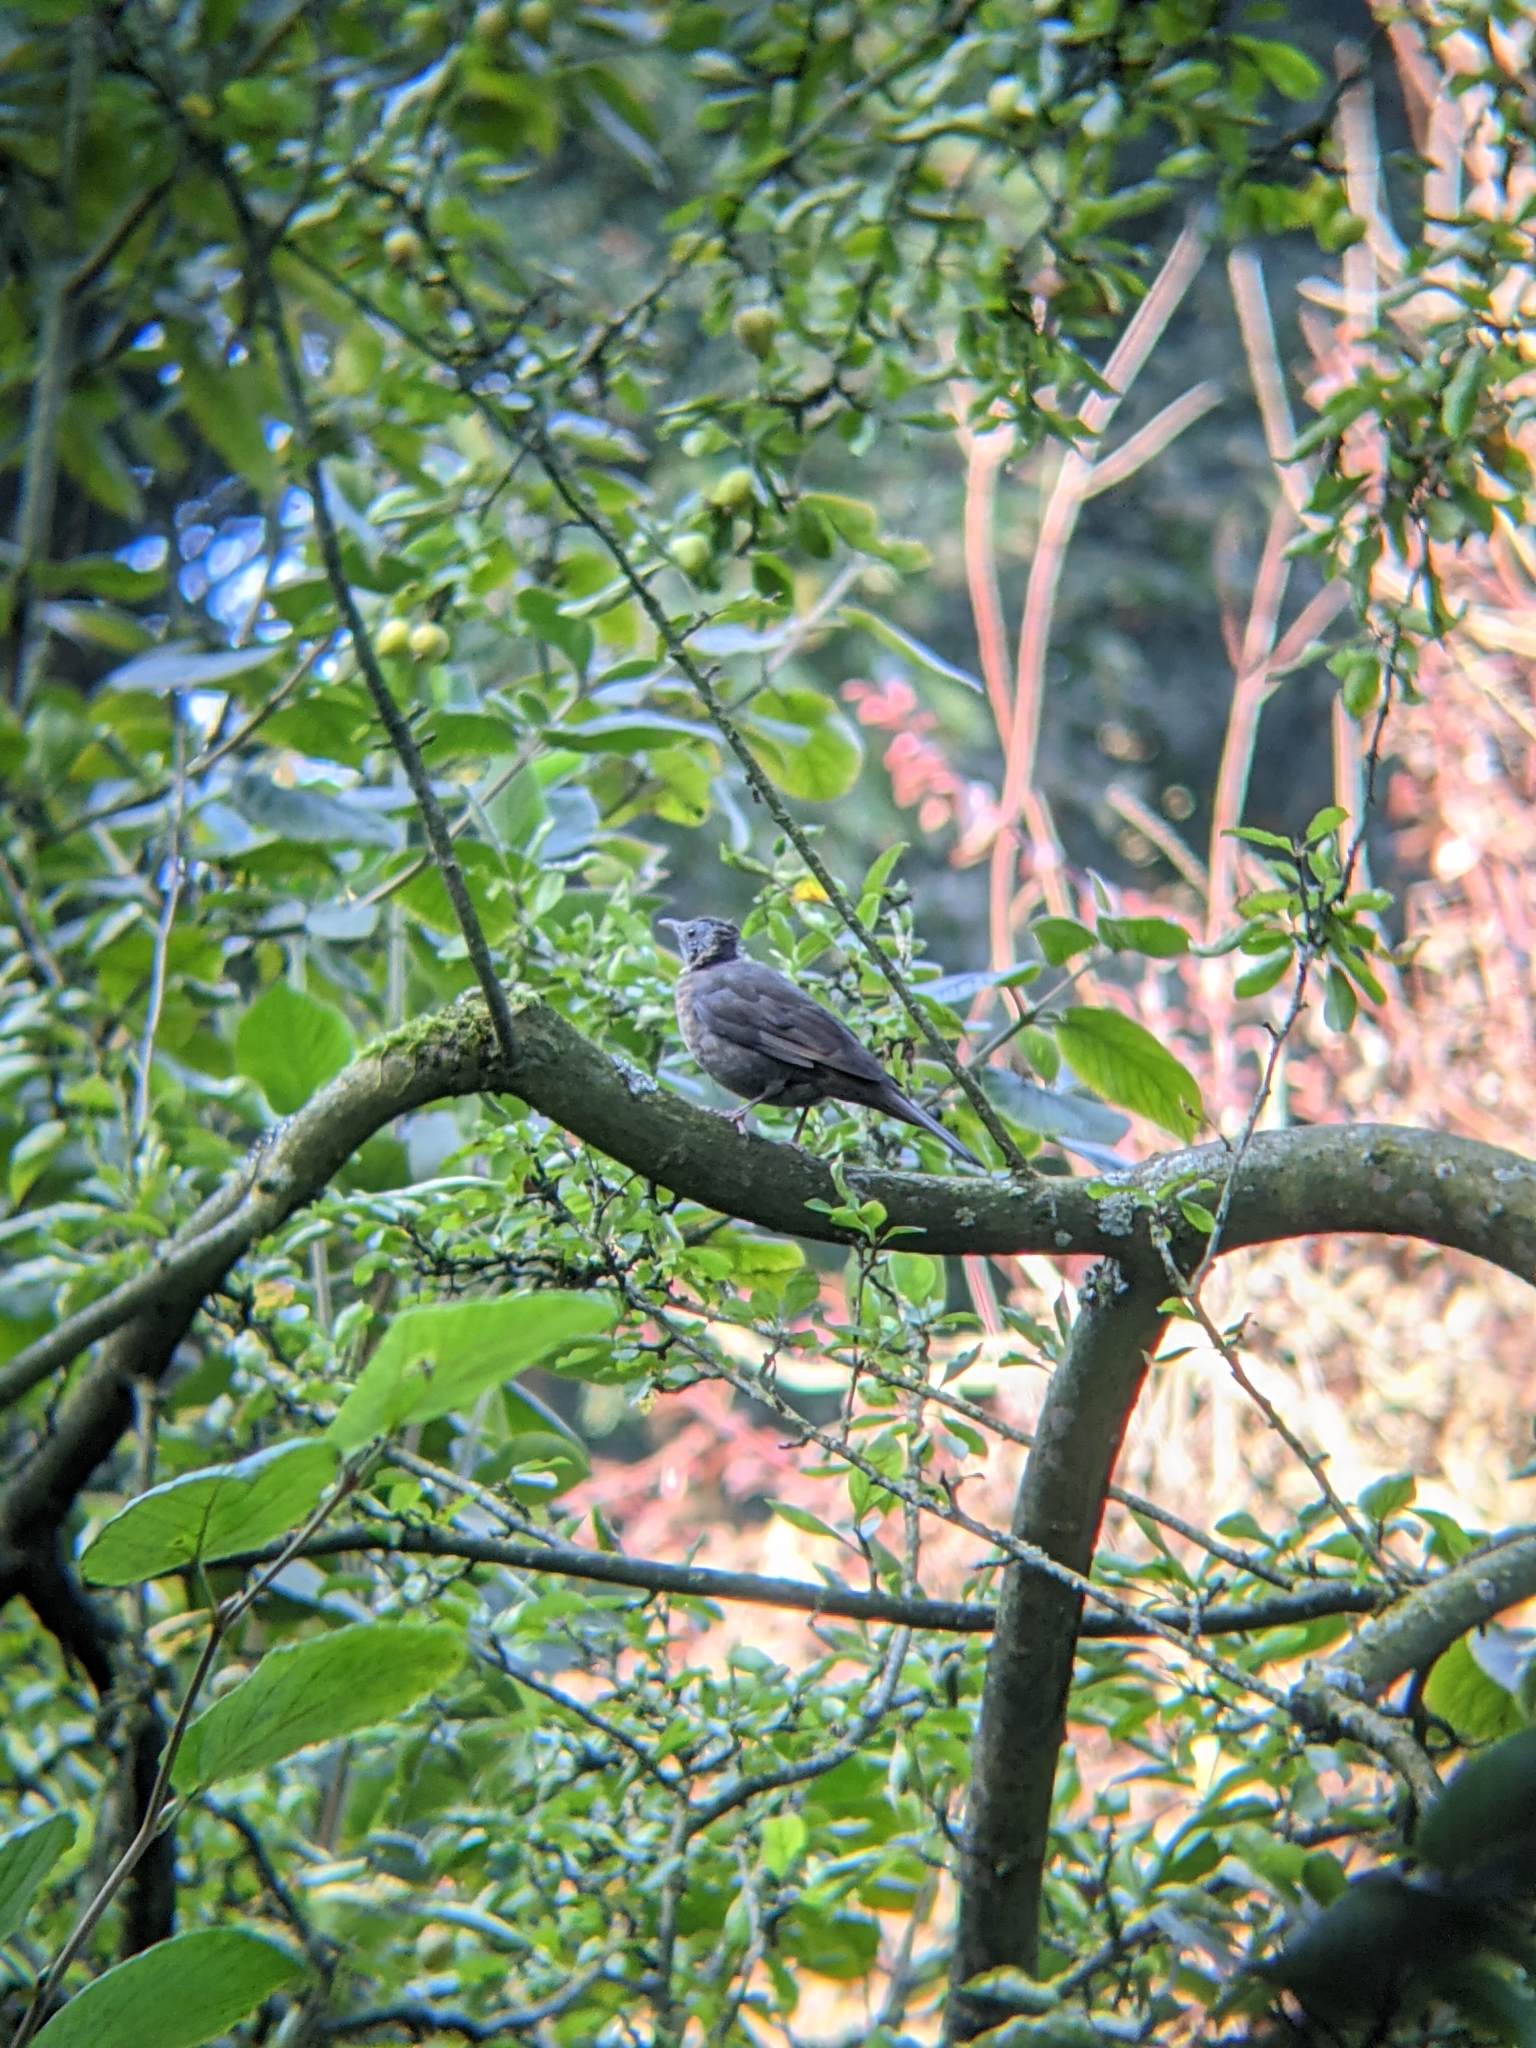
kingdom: Animalia
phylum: Chordata
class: Aves
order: Passeriformes
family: Turdidae
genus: Turdus
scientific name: Turdus merula
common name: Common blackbird
